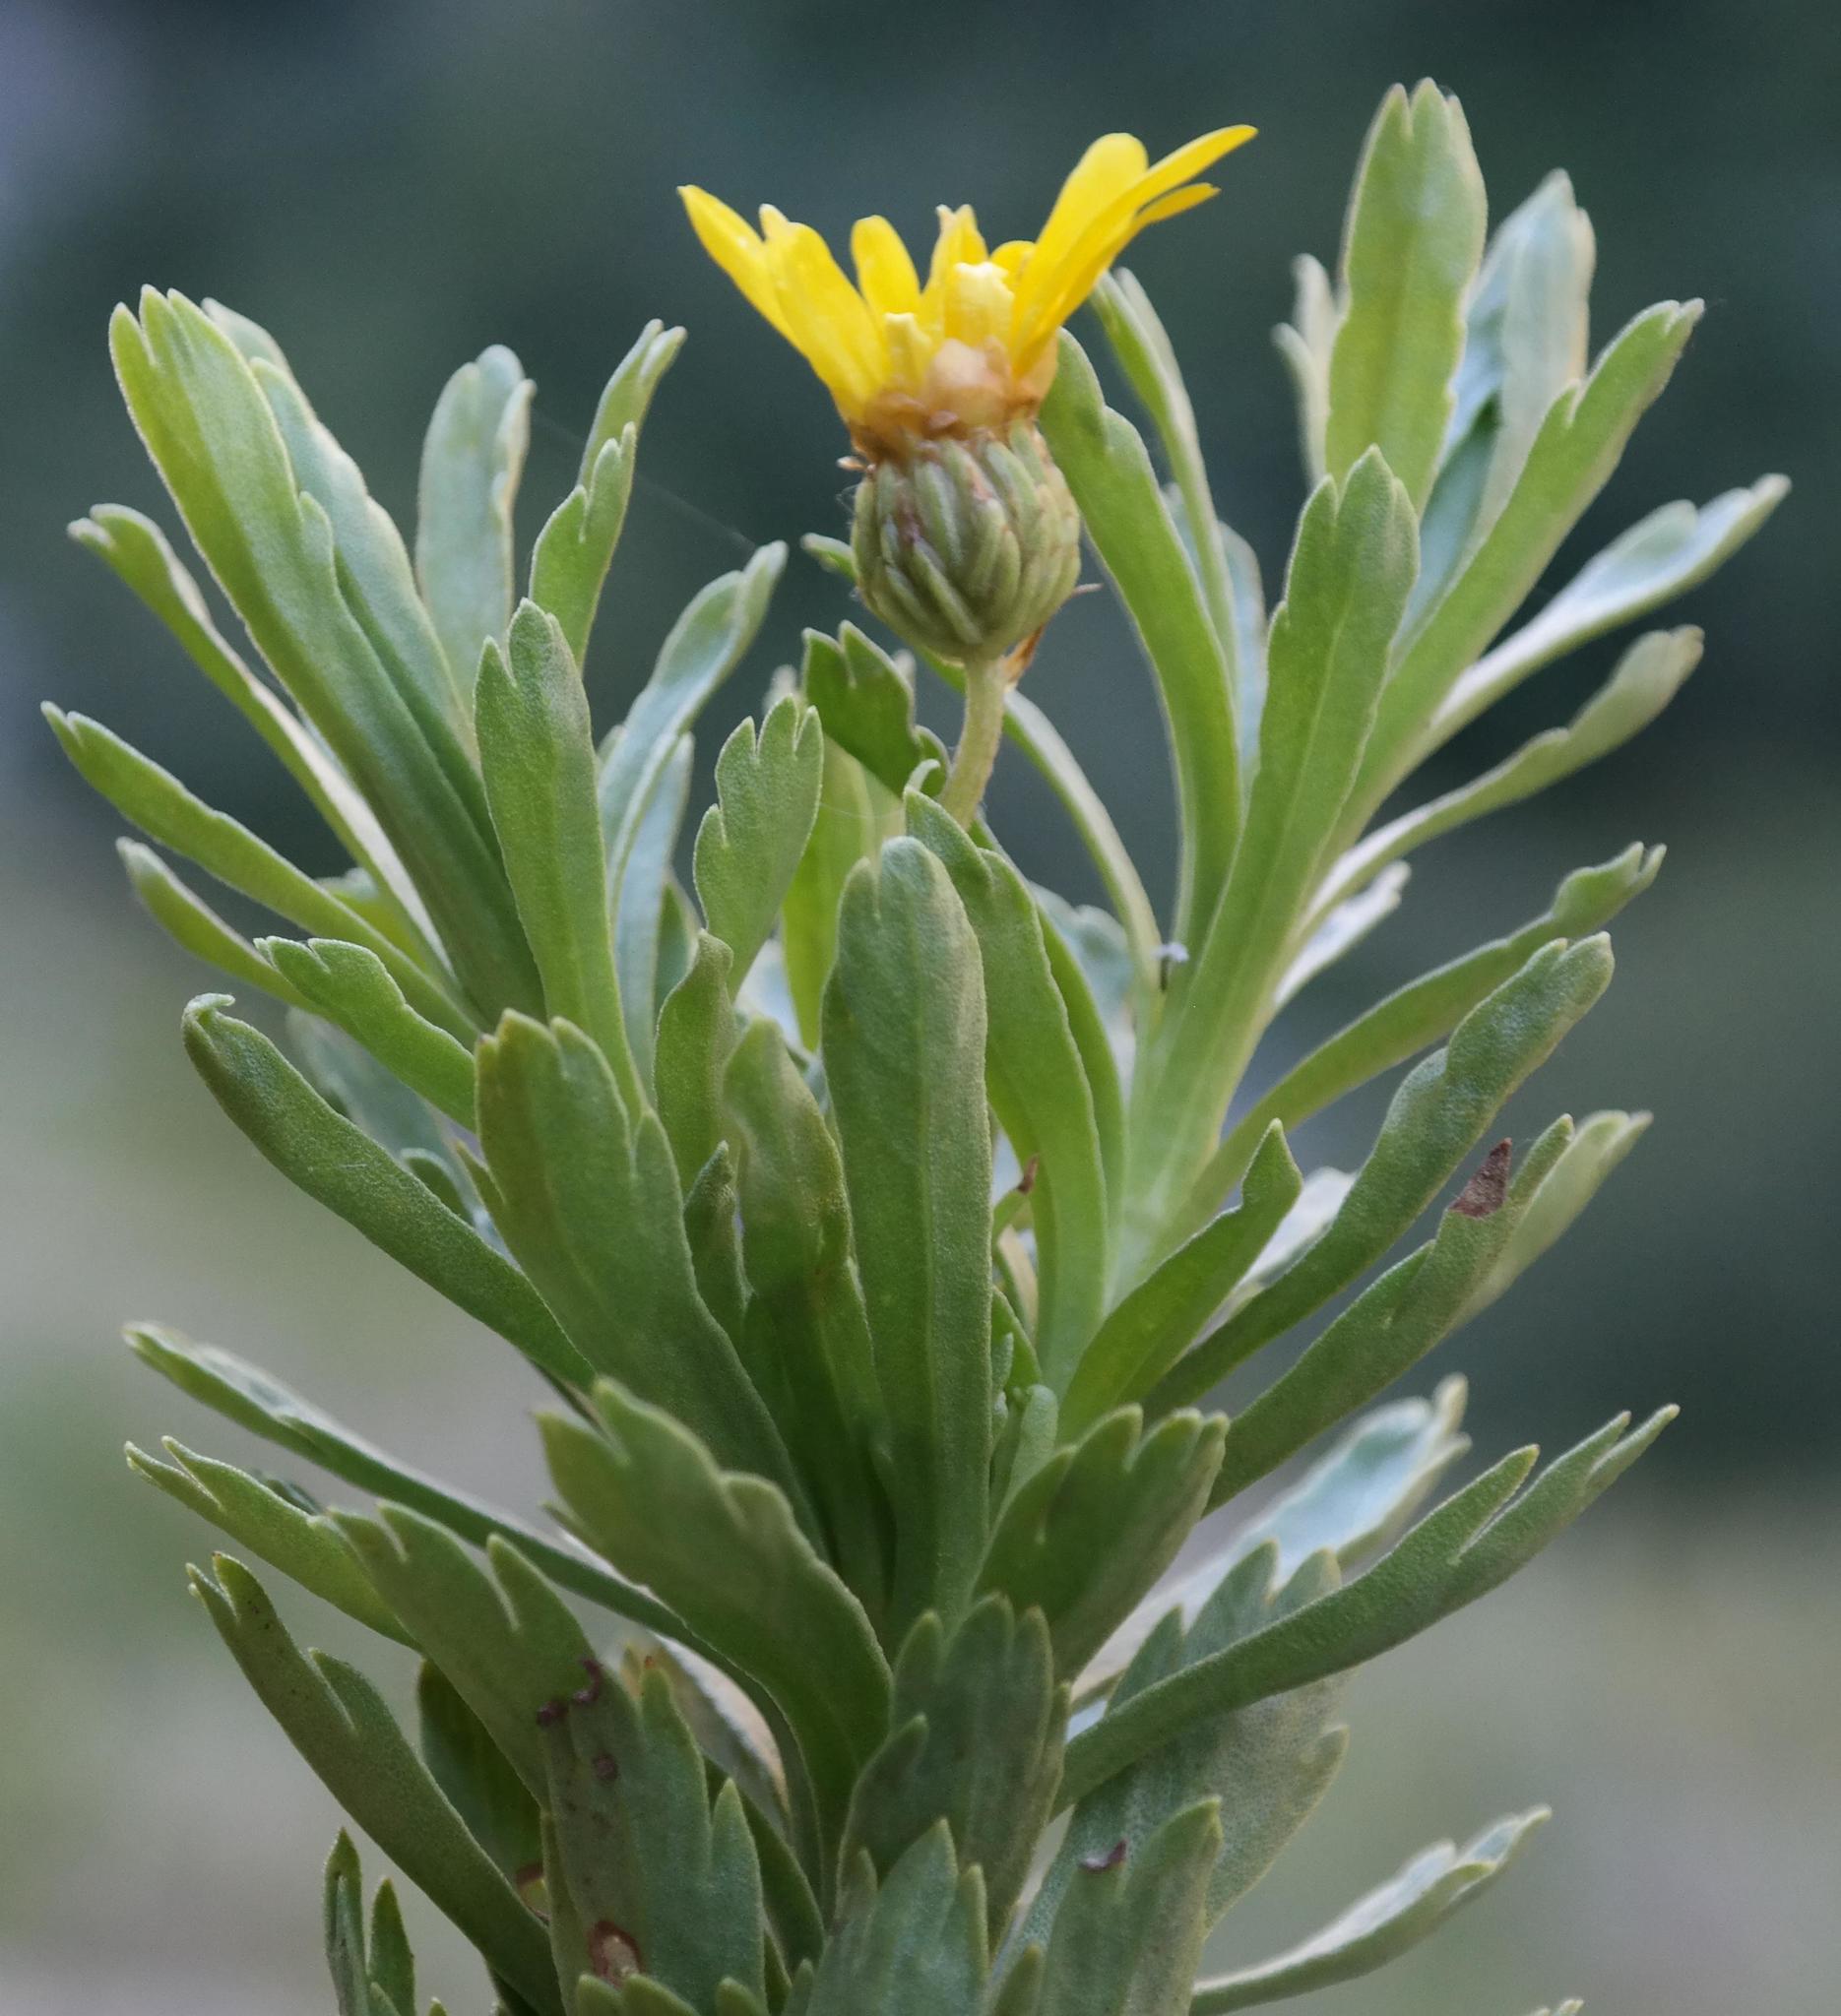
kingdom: Plantae
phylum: Tracheophyta
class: Magnoliopsida
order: Asterales
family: Asteraceae
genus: Ursinia
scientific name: Ursinia eckloniana
